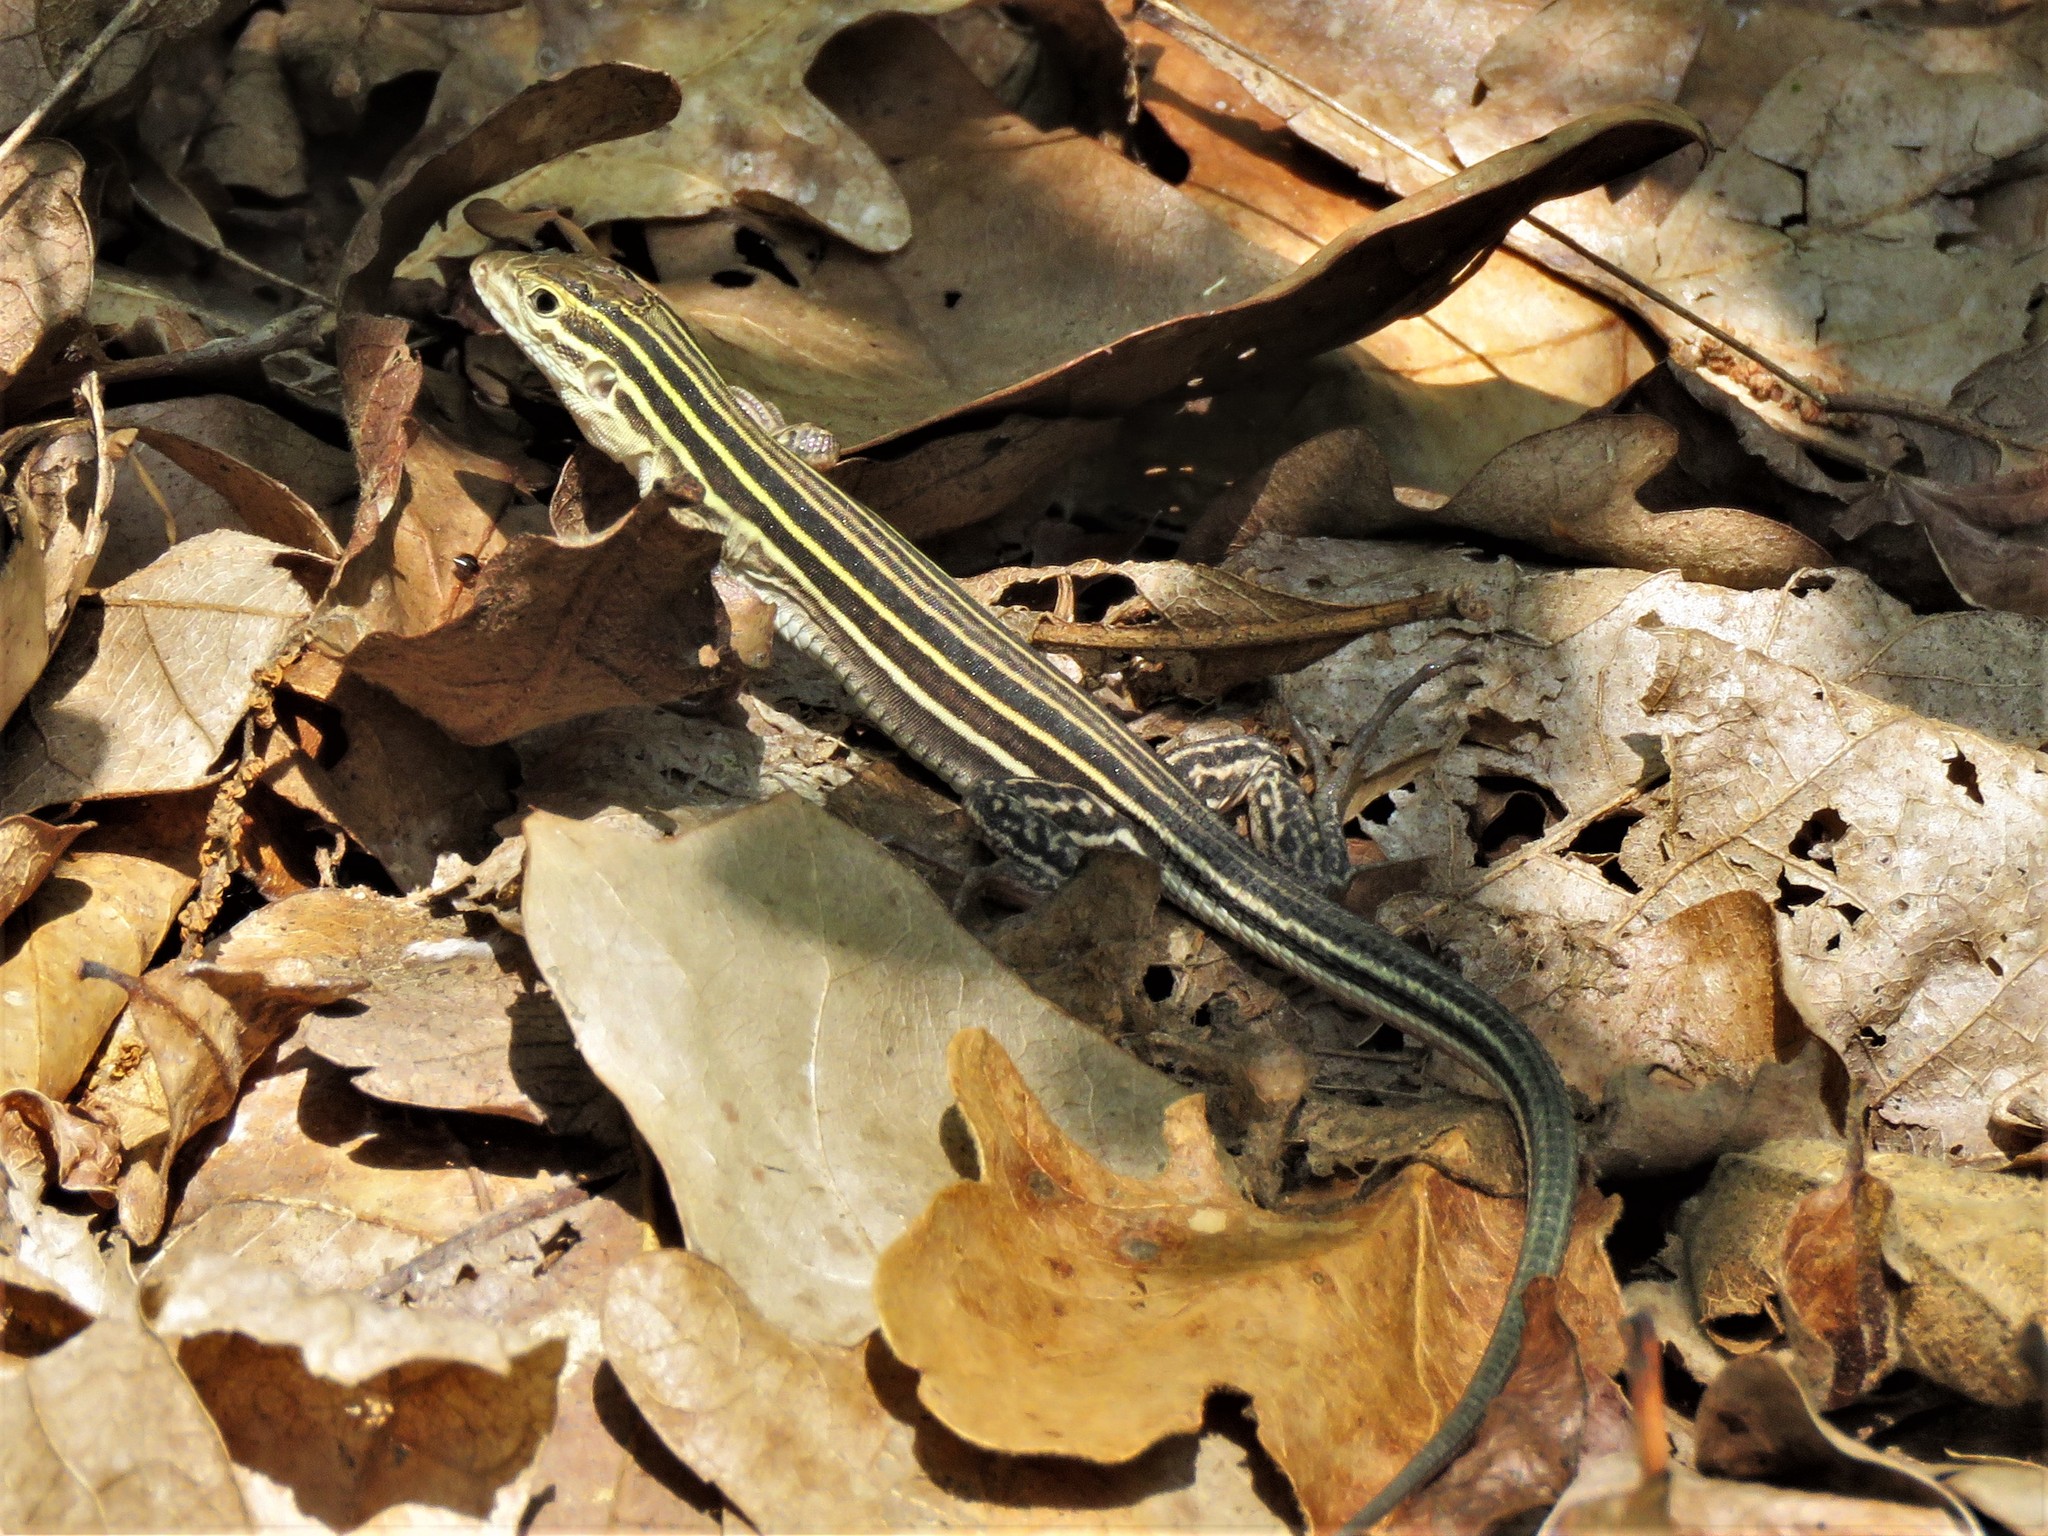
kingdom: Animalia
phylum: Chordata
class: Squamata
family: Teiidae
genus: Aspidoscelis
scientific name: Aspidoscelis sexlineatus
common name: Six-lined racerunner
